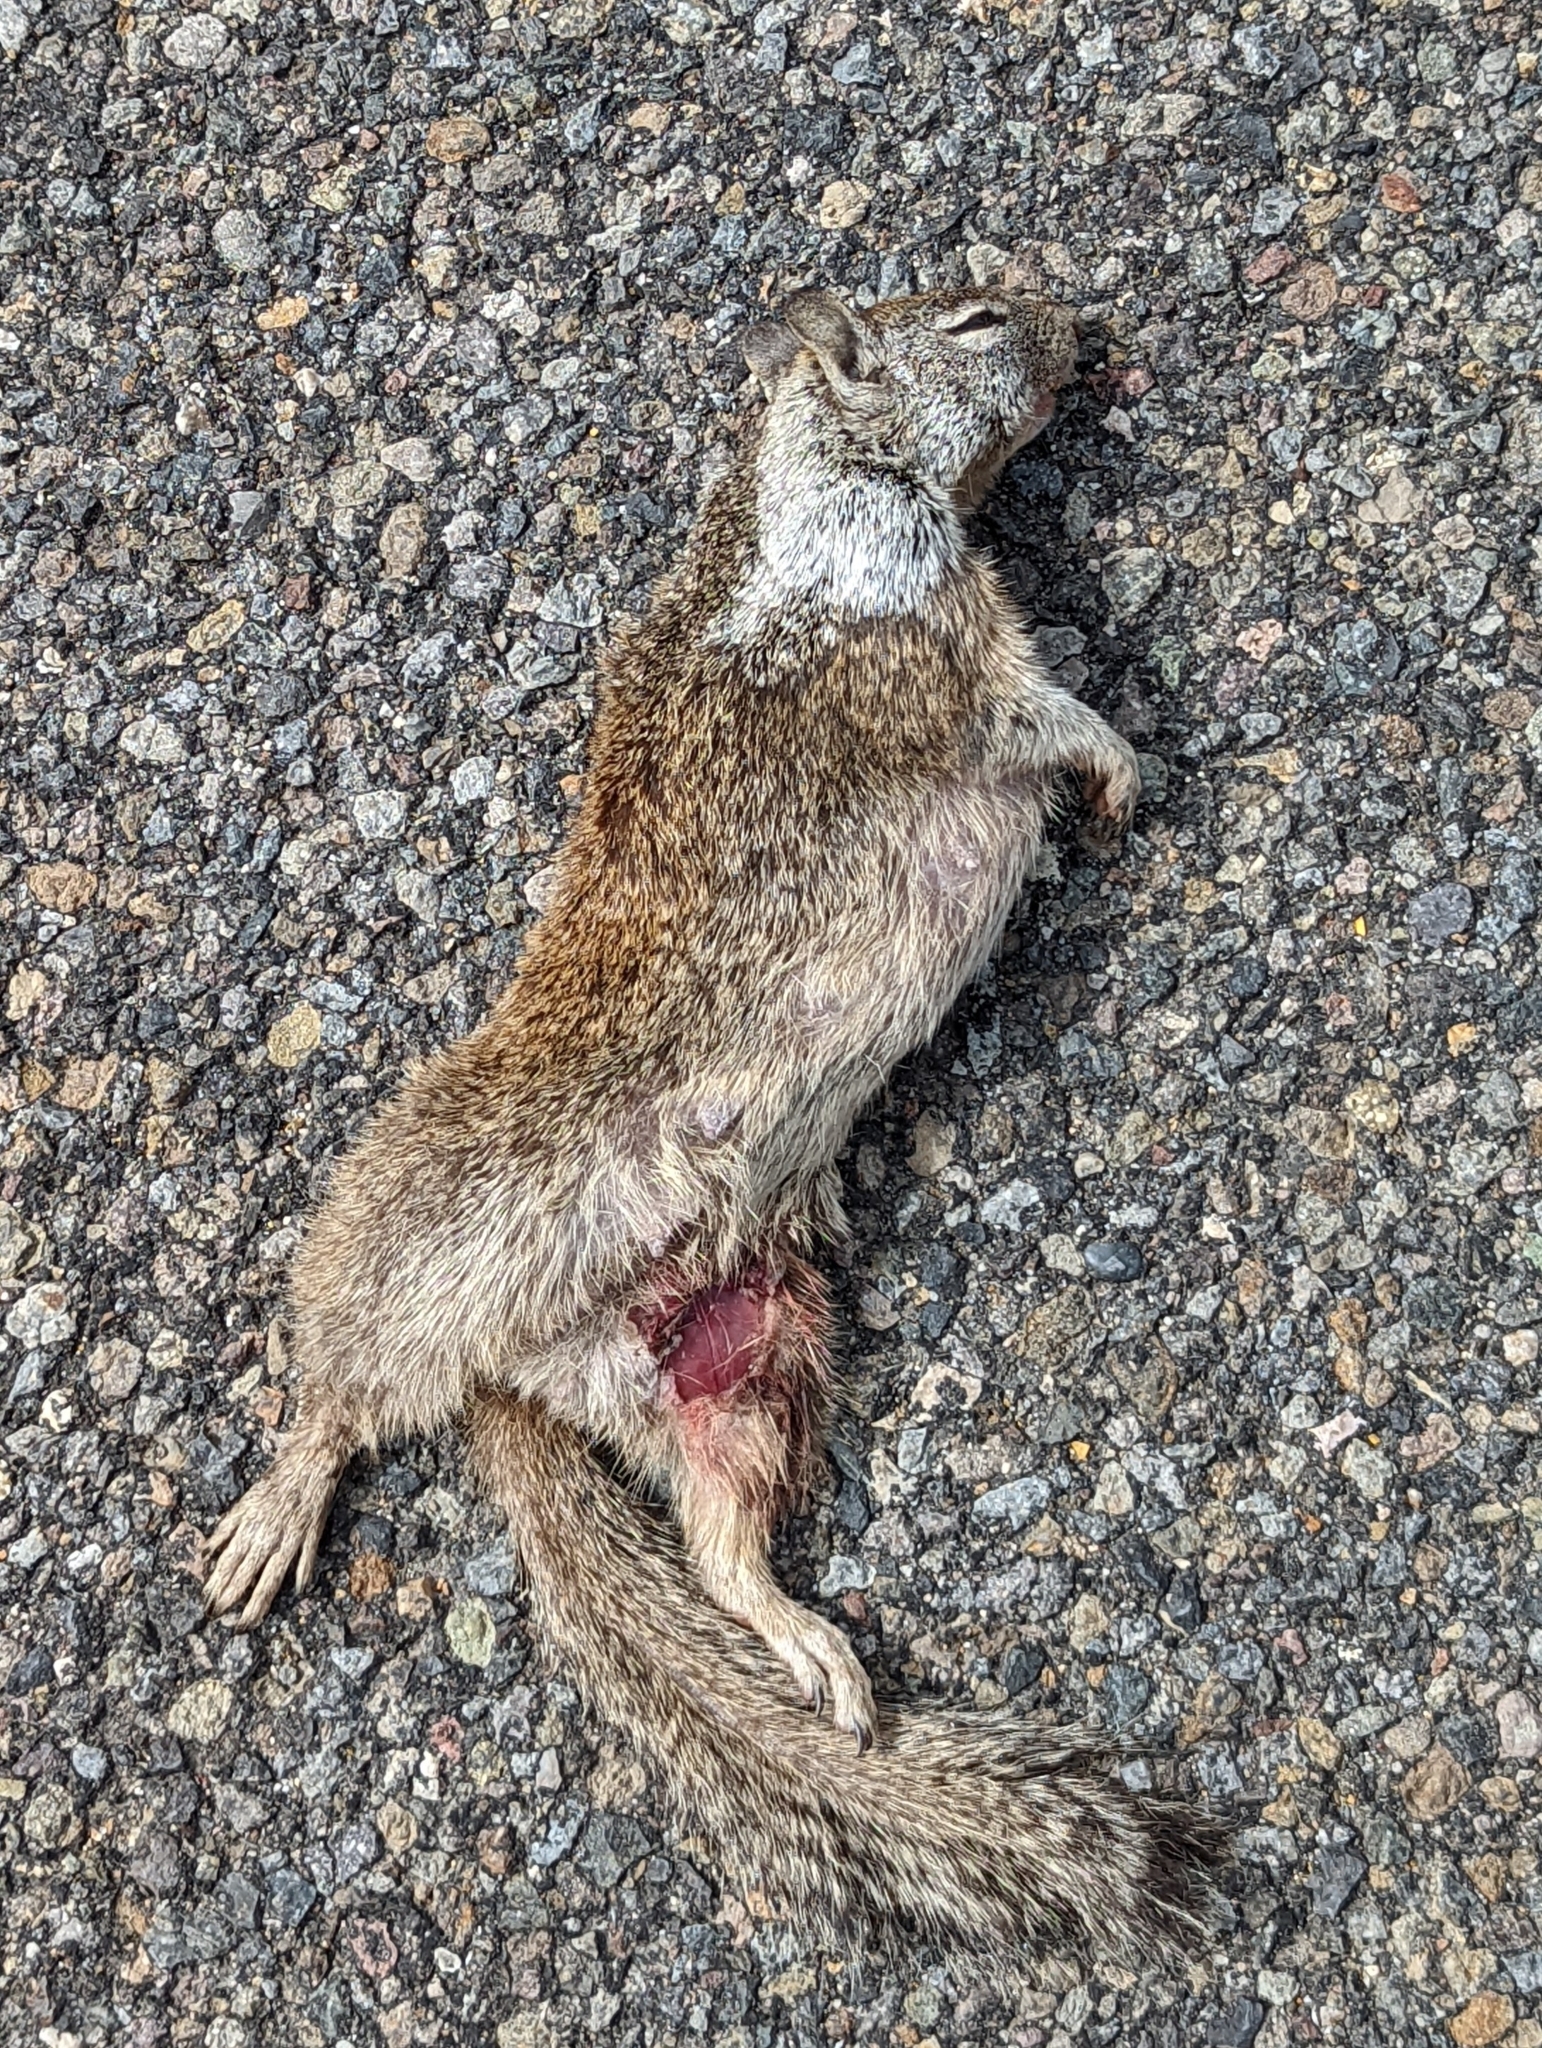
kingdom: Animalia
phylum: Chordata
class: Mammalia
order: Rodentia
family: Sciuridae
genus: Otospermophilus
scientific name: Otospermophilus beecheyi
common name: California ground squirrel
